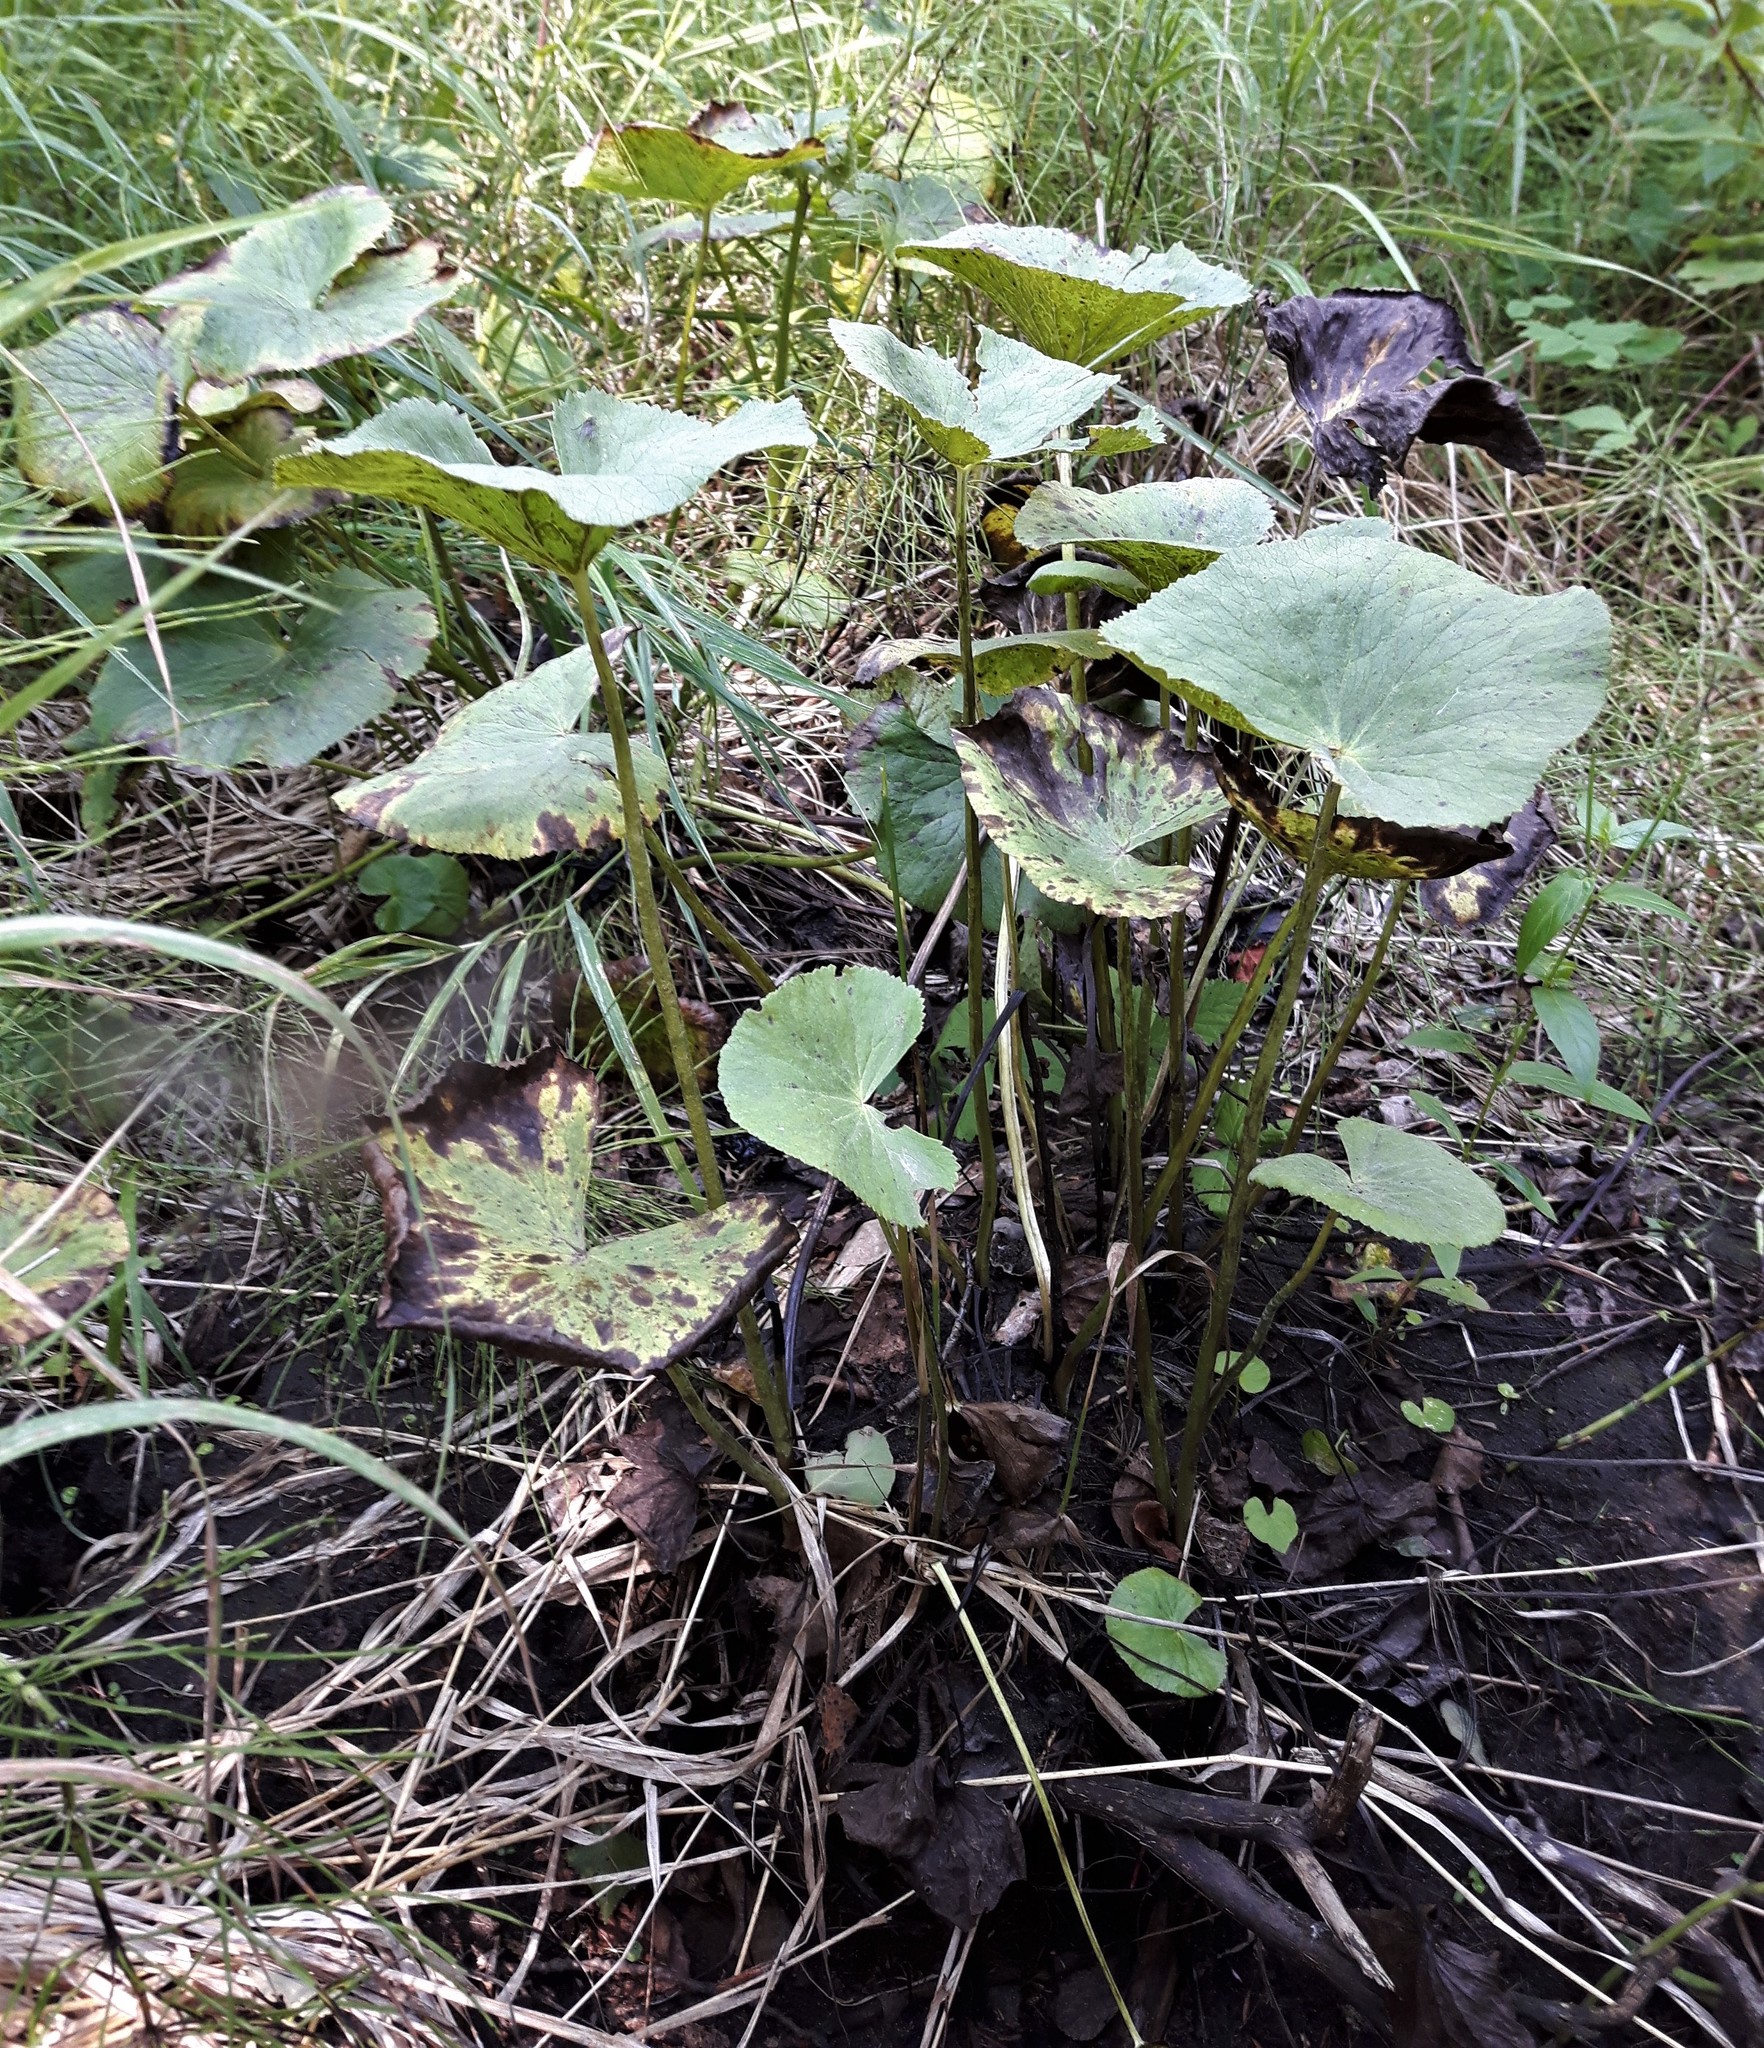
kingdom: Plantae
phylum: Tracheophyta
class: Magnoliopsida
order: Ranunculales
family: Ranunculaceae
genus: Caltha
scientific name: Caltha palustris
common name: Marsh marigold
